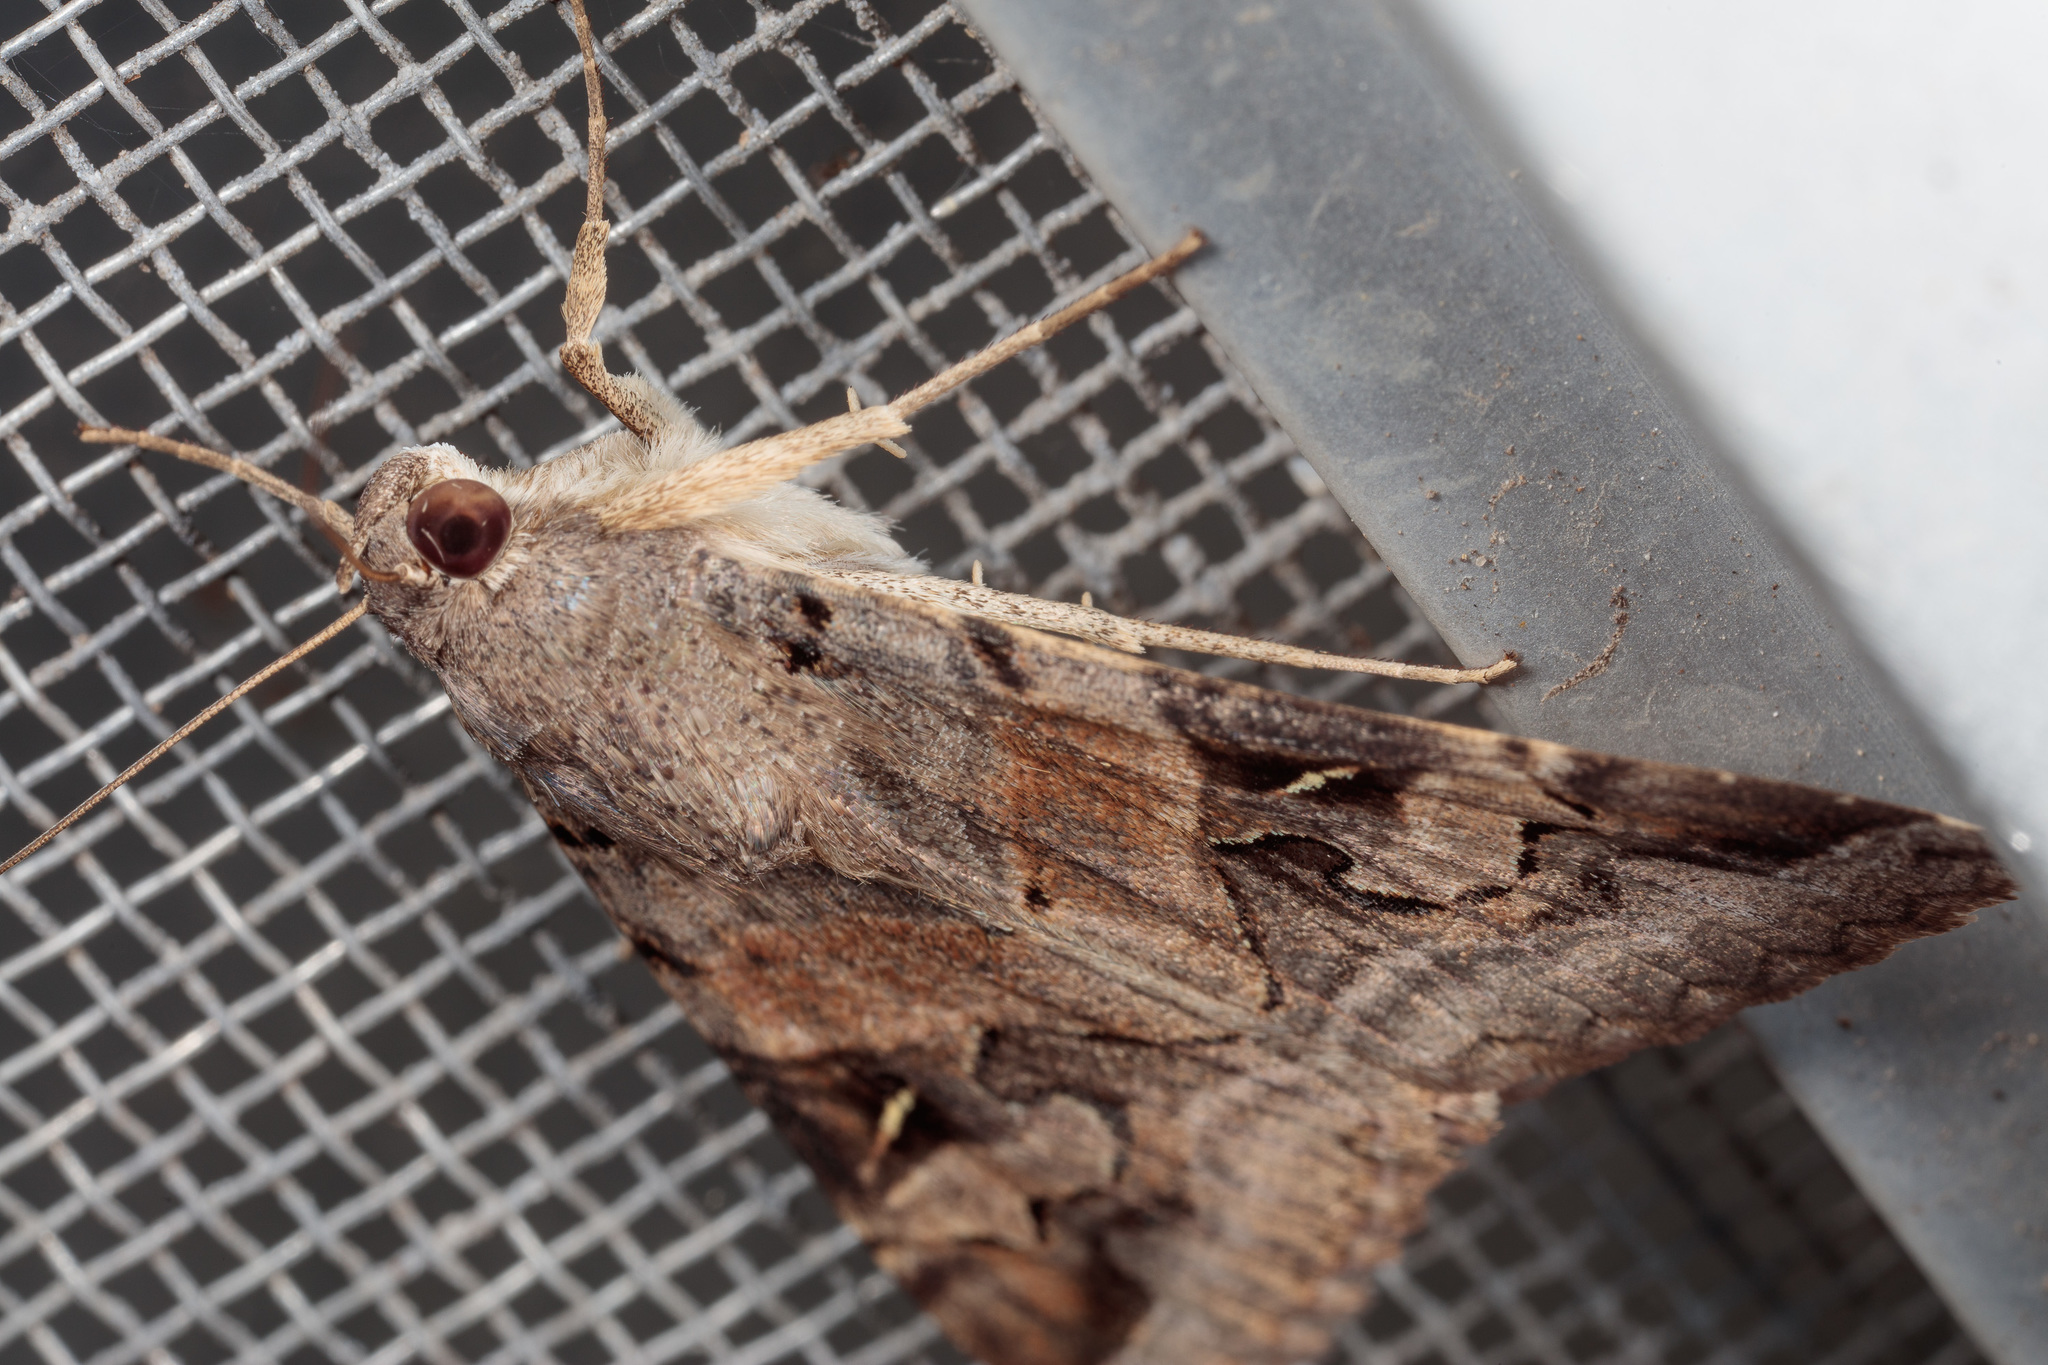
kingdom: Animalia
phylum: Arthropoda
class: Insecta
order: Lepidoptera
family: Erebidae
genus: Melipotis
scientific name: Melipotis indomita
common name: Moth
